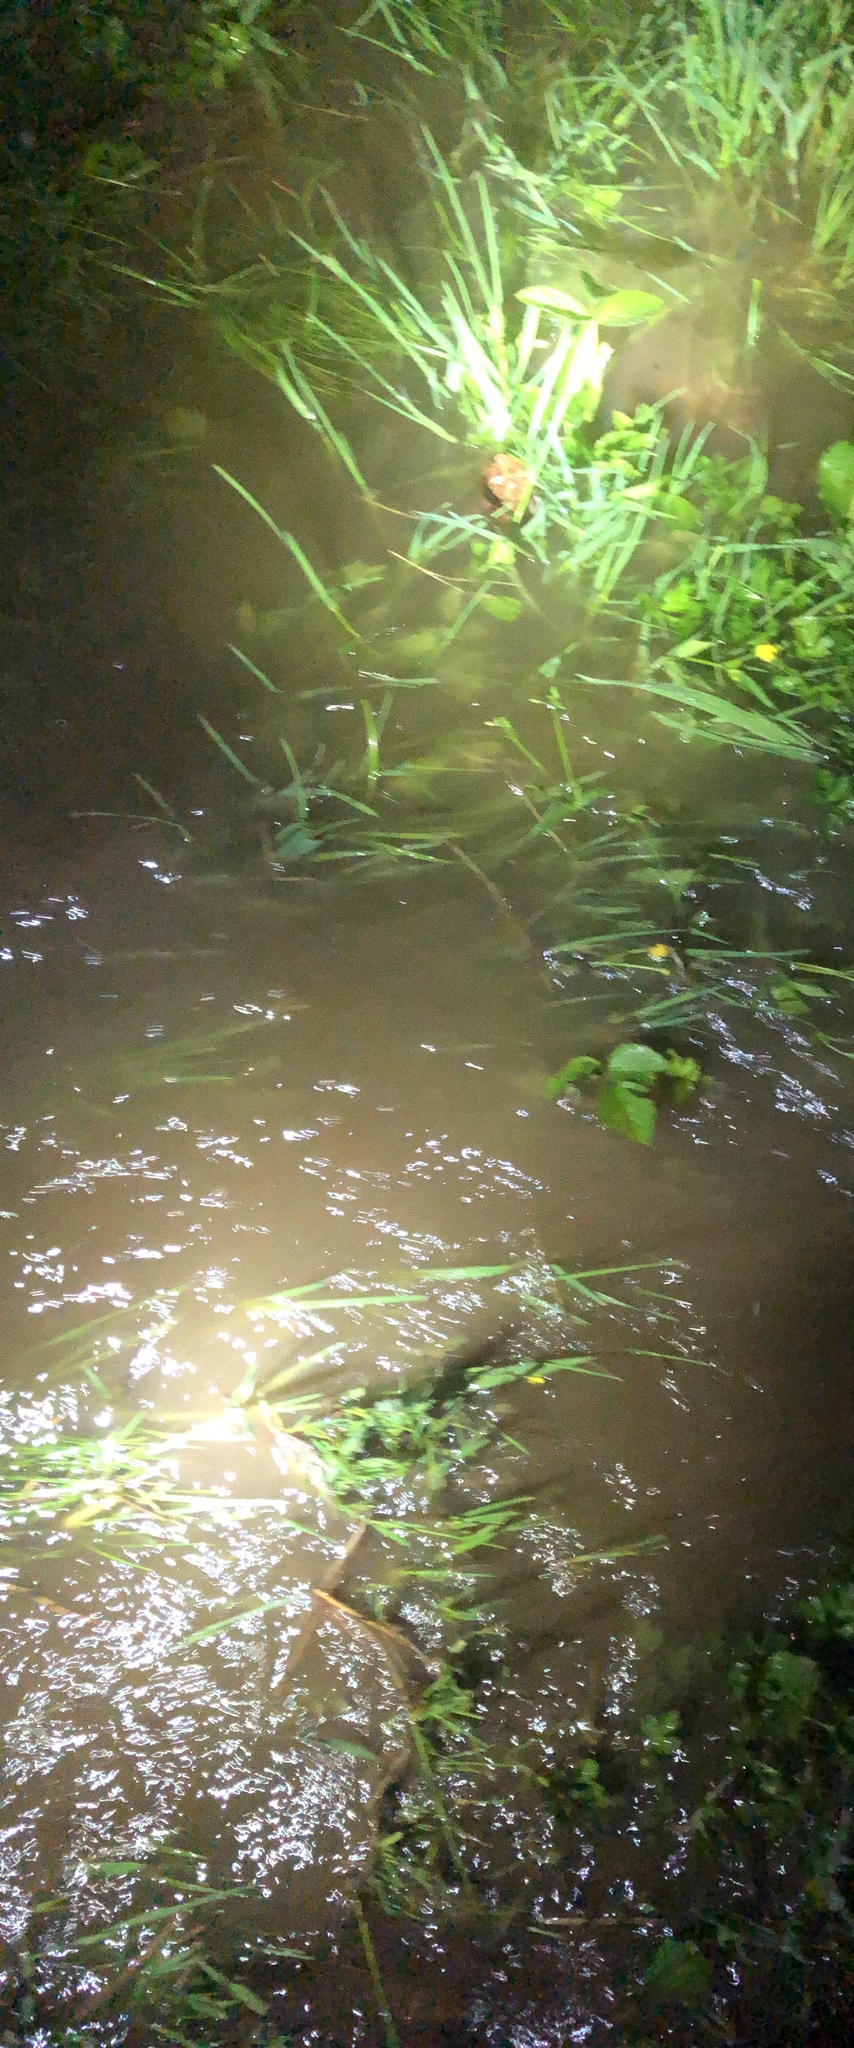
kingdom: Animalia
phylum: Chordata
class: Amphibia
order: Anura
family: Bufonidae
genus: Anaxyrus
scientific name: Anaxyrus americanus
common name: American toad
